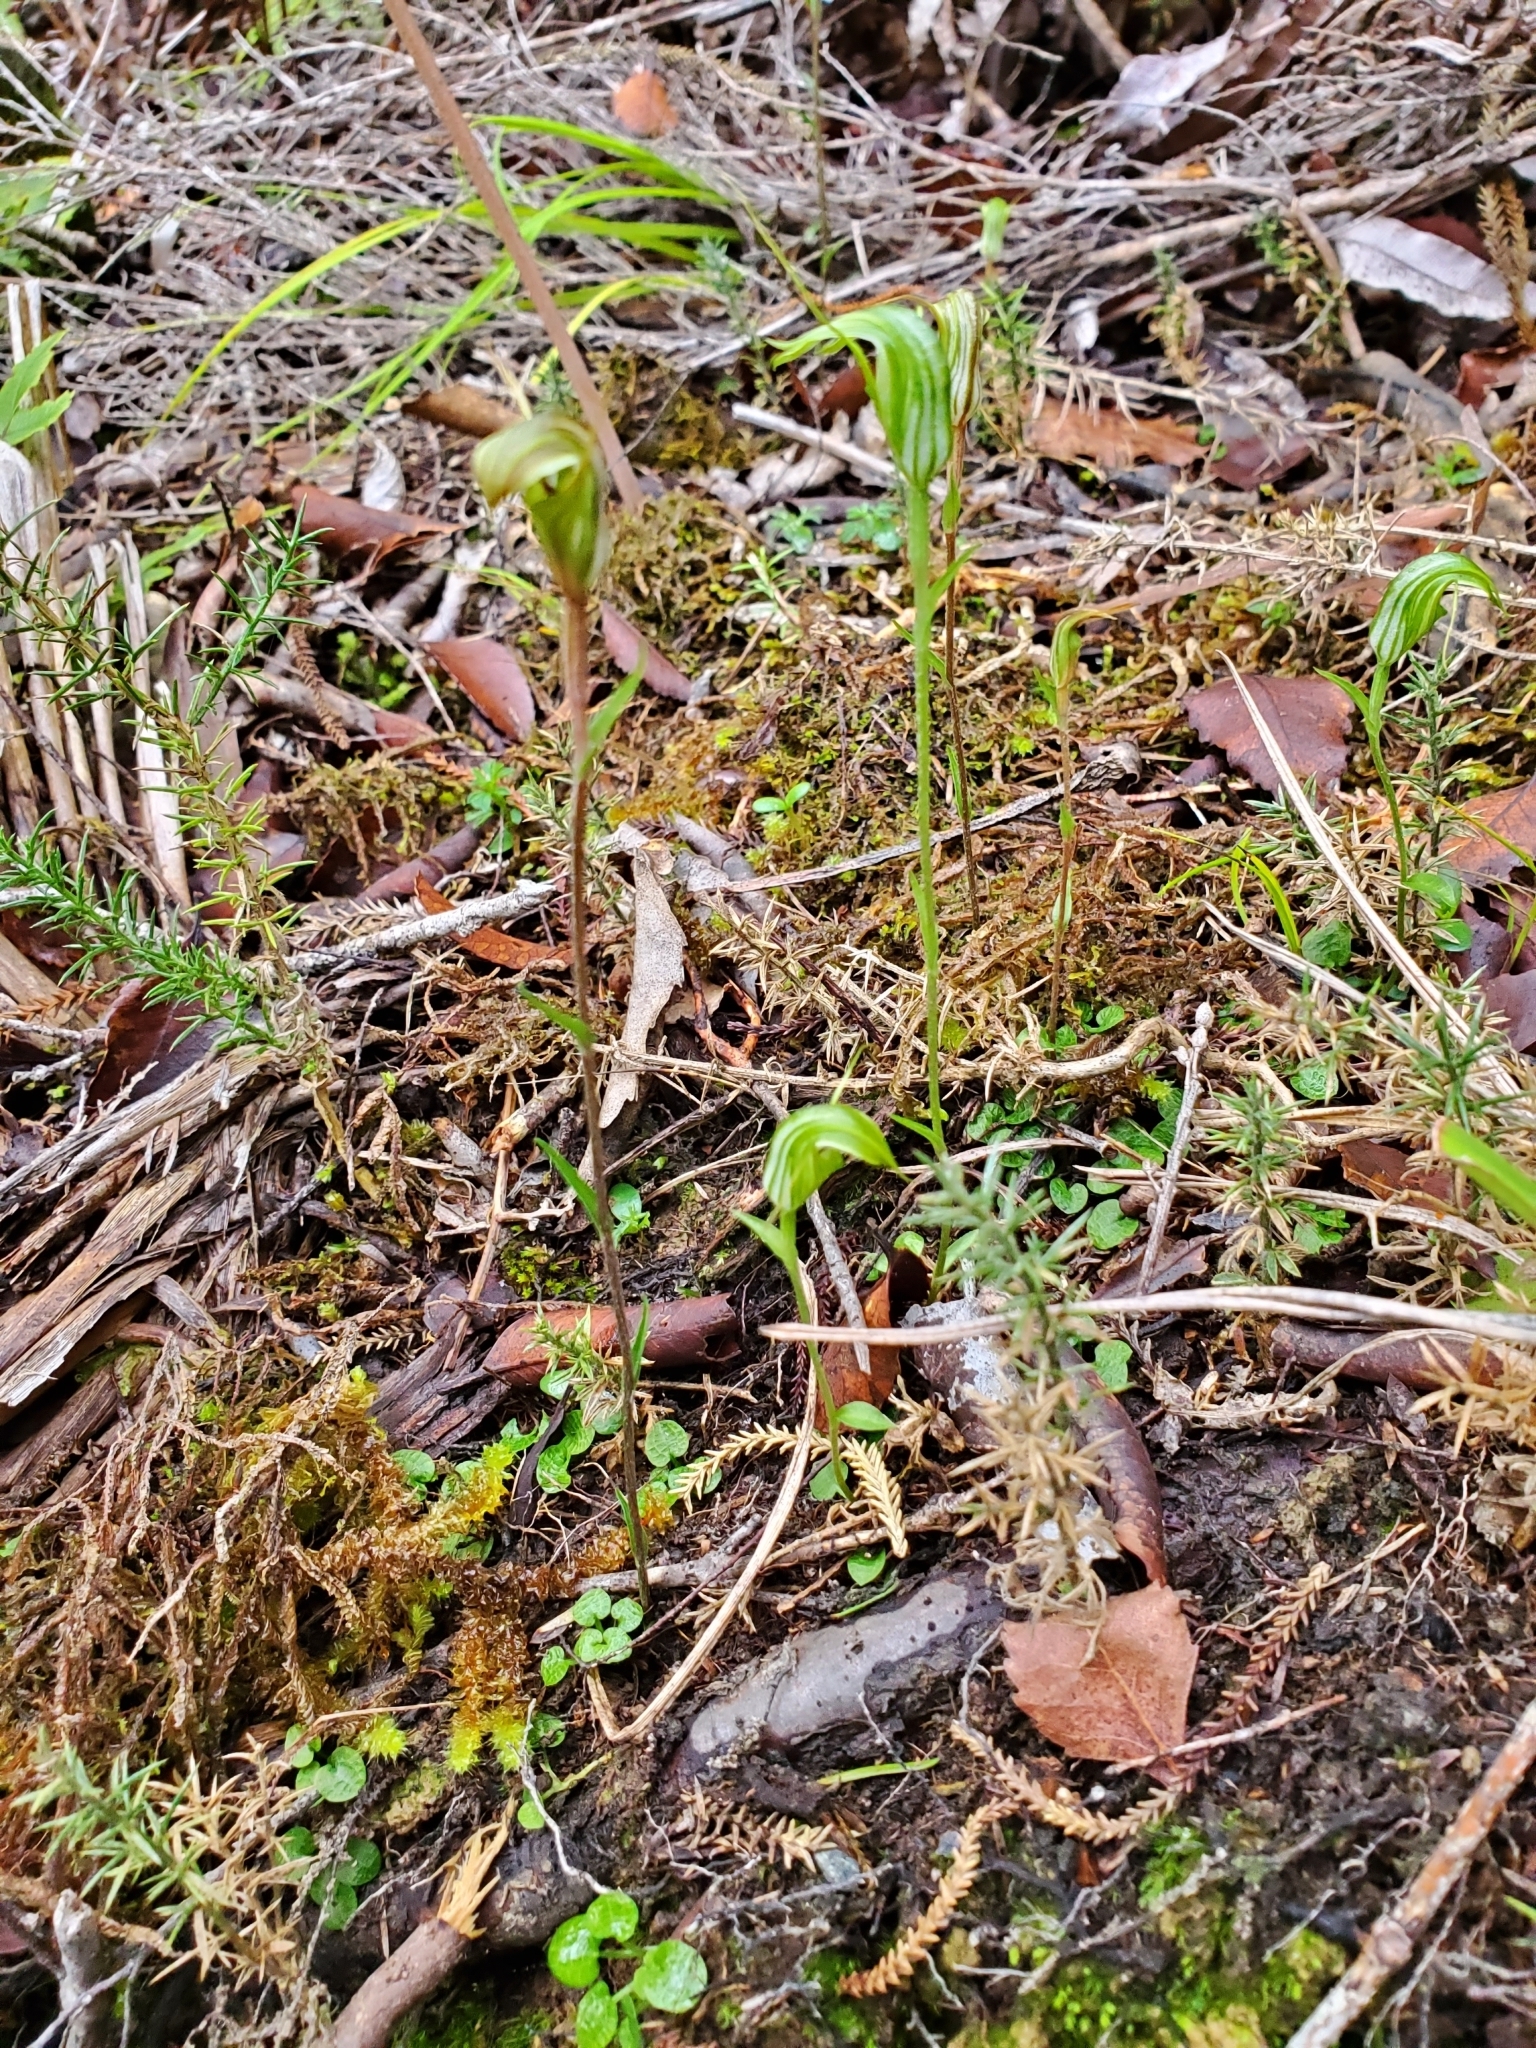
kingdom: Plantae
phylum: Tracheophyta
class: Liliopsida
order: Asparagales
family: Orchidaceae
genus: Pterostylis
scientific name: Pterostylis trullifolia
